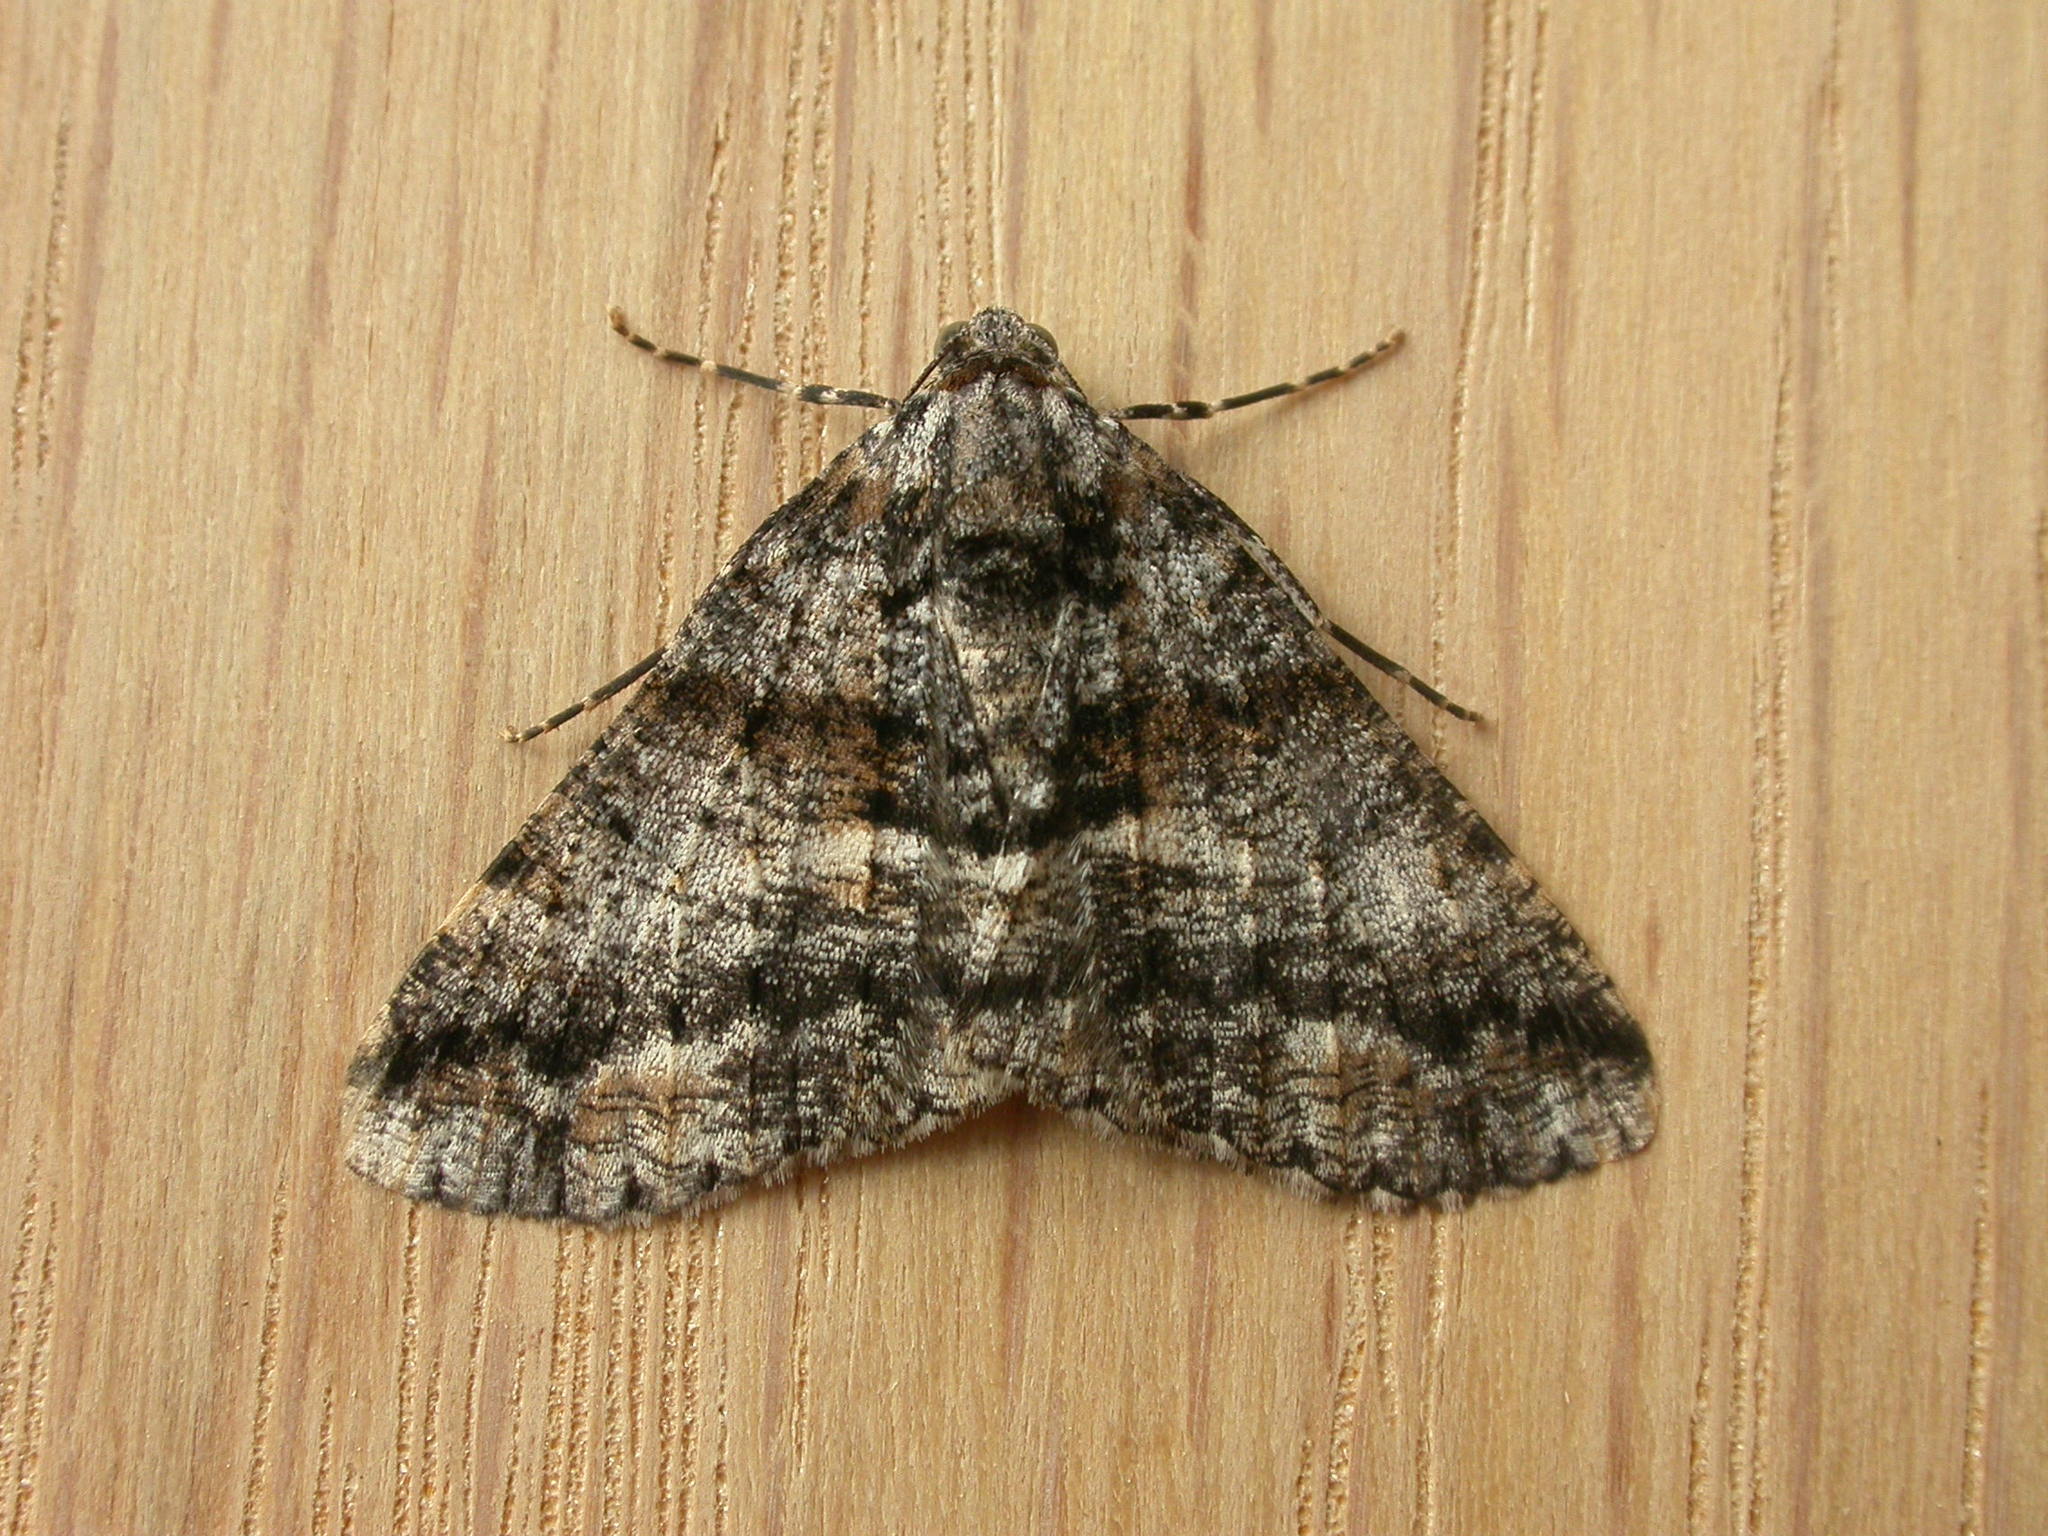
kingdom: Animalia
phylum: Arthropoda
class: Insecta
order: Lepidoptera
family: Geometridae
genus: Gastrinodes
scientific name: Gastrinodes argoplaca
